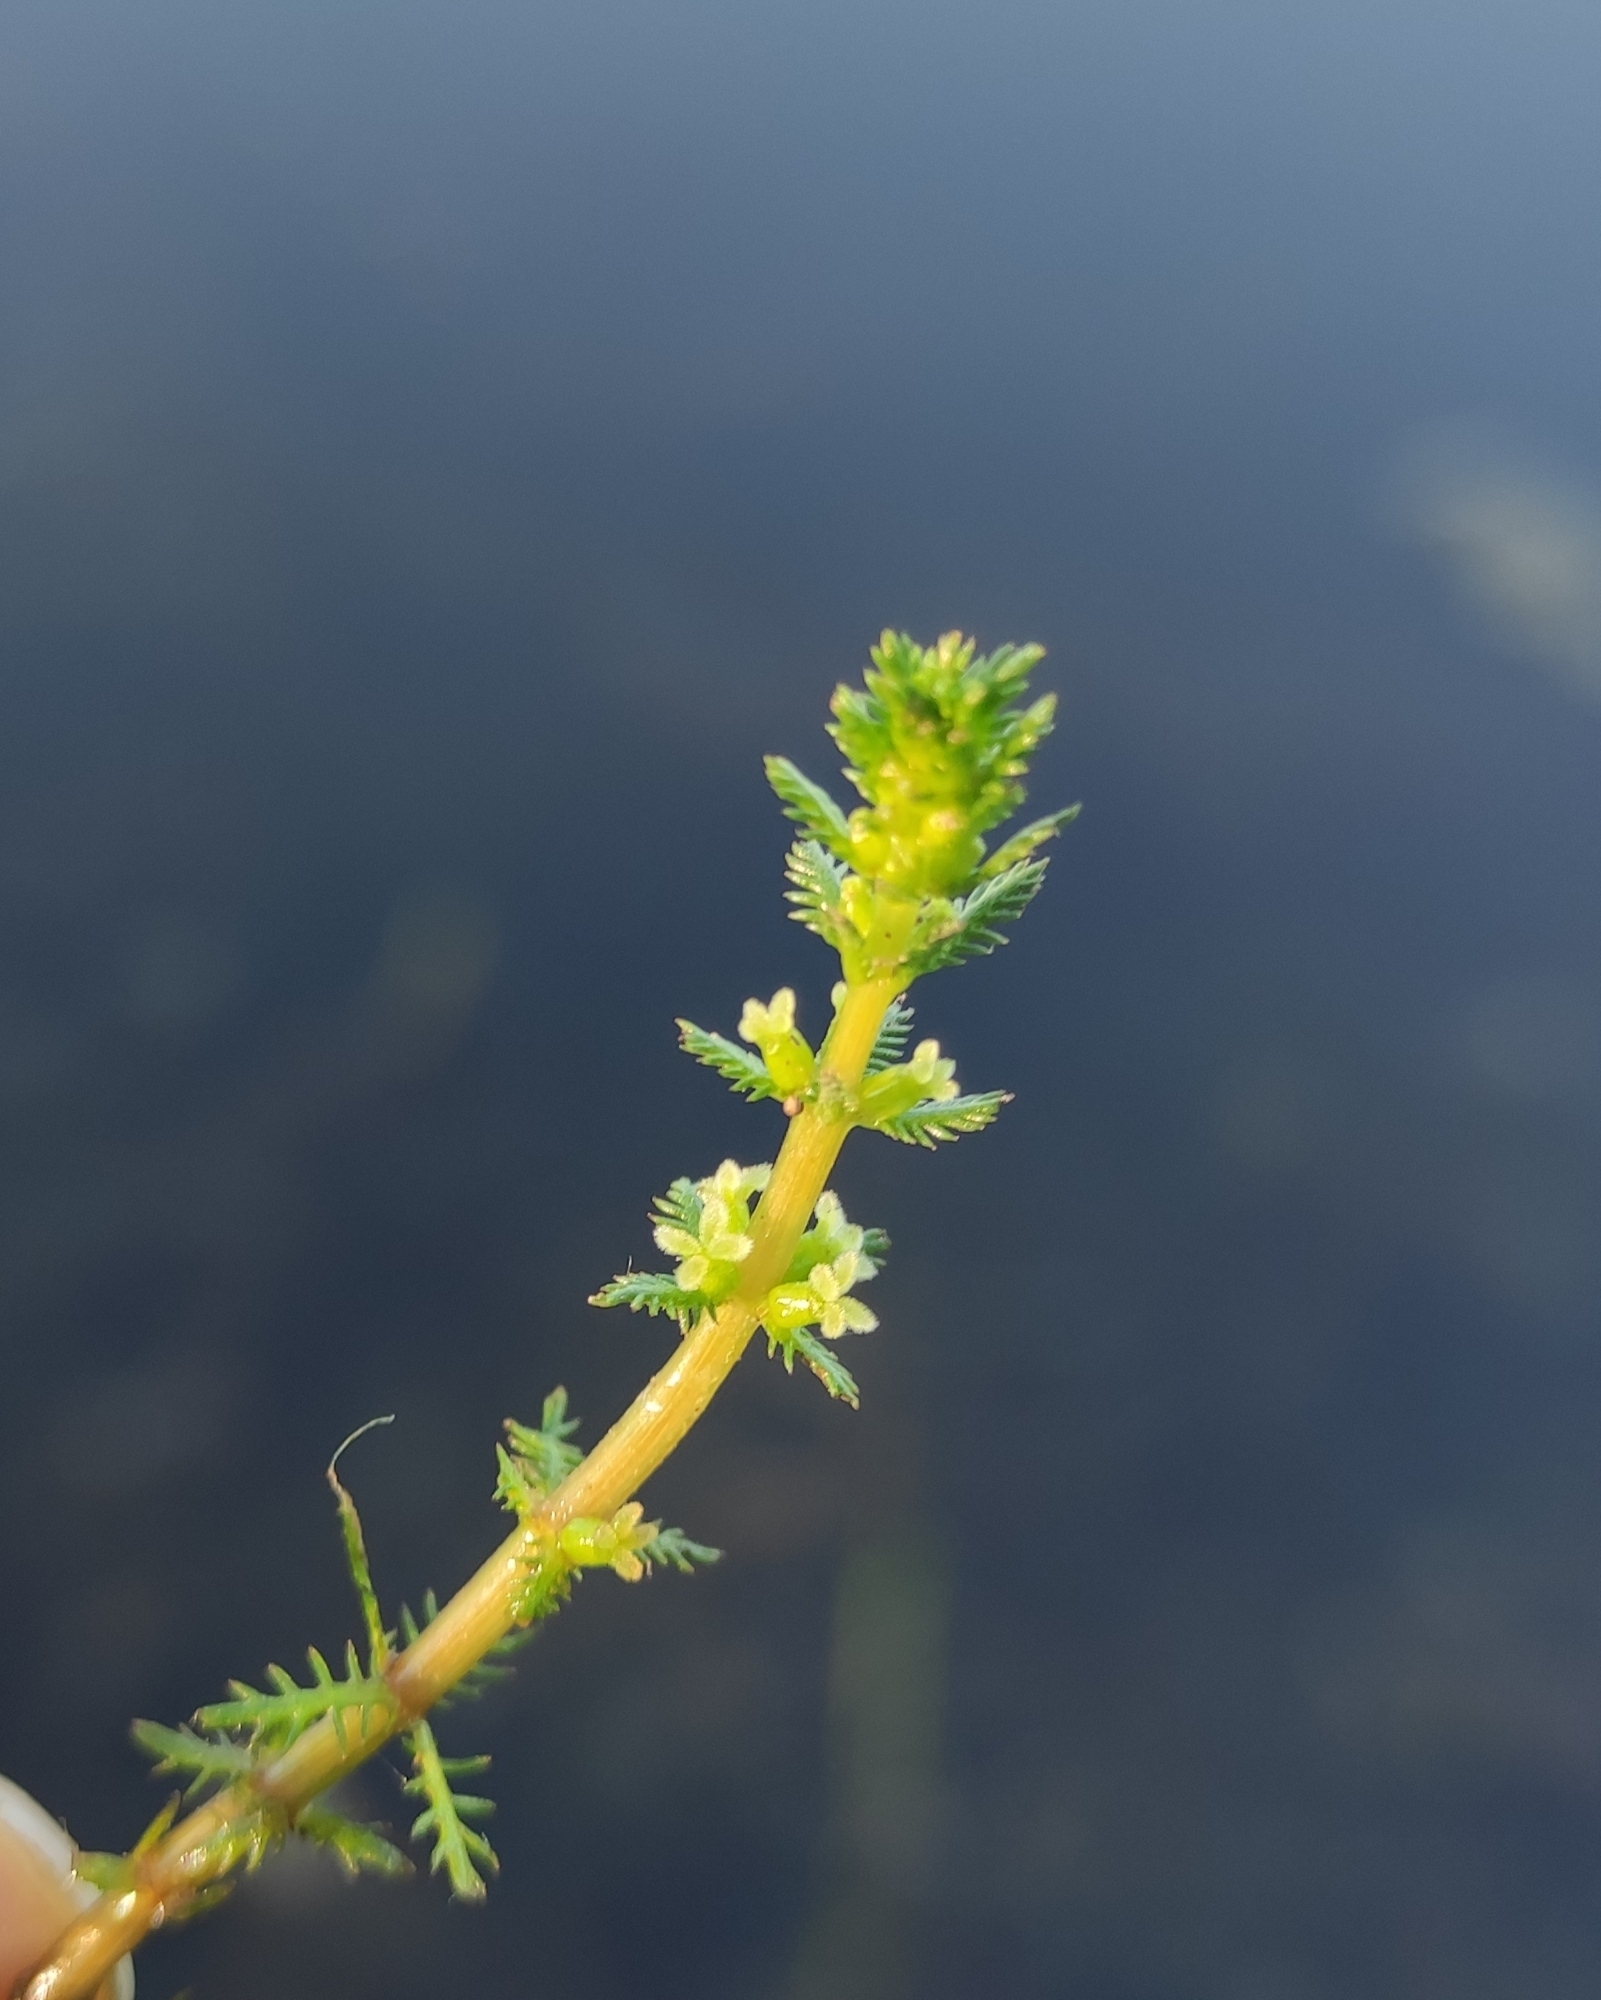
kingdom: Plantae
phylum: Tracheophyta
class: Magnoliopsida
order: Saxifragales
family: Haloragaceae
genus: Myriophyllum
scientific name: Myriophyllum verticillatum
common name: Whorled water-milfoil
